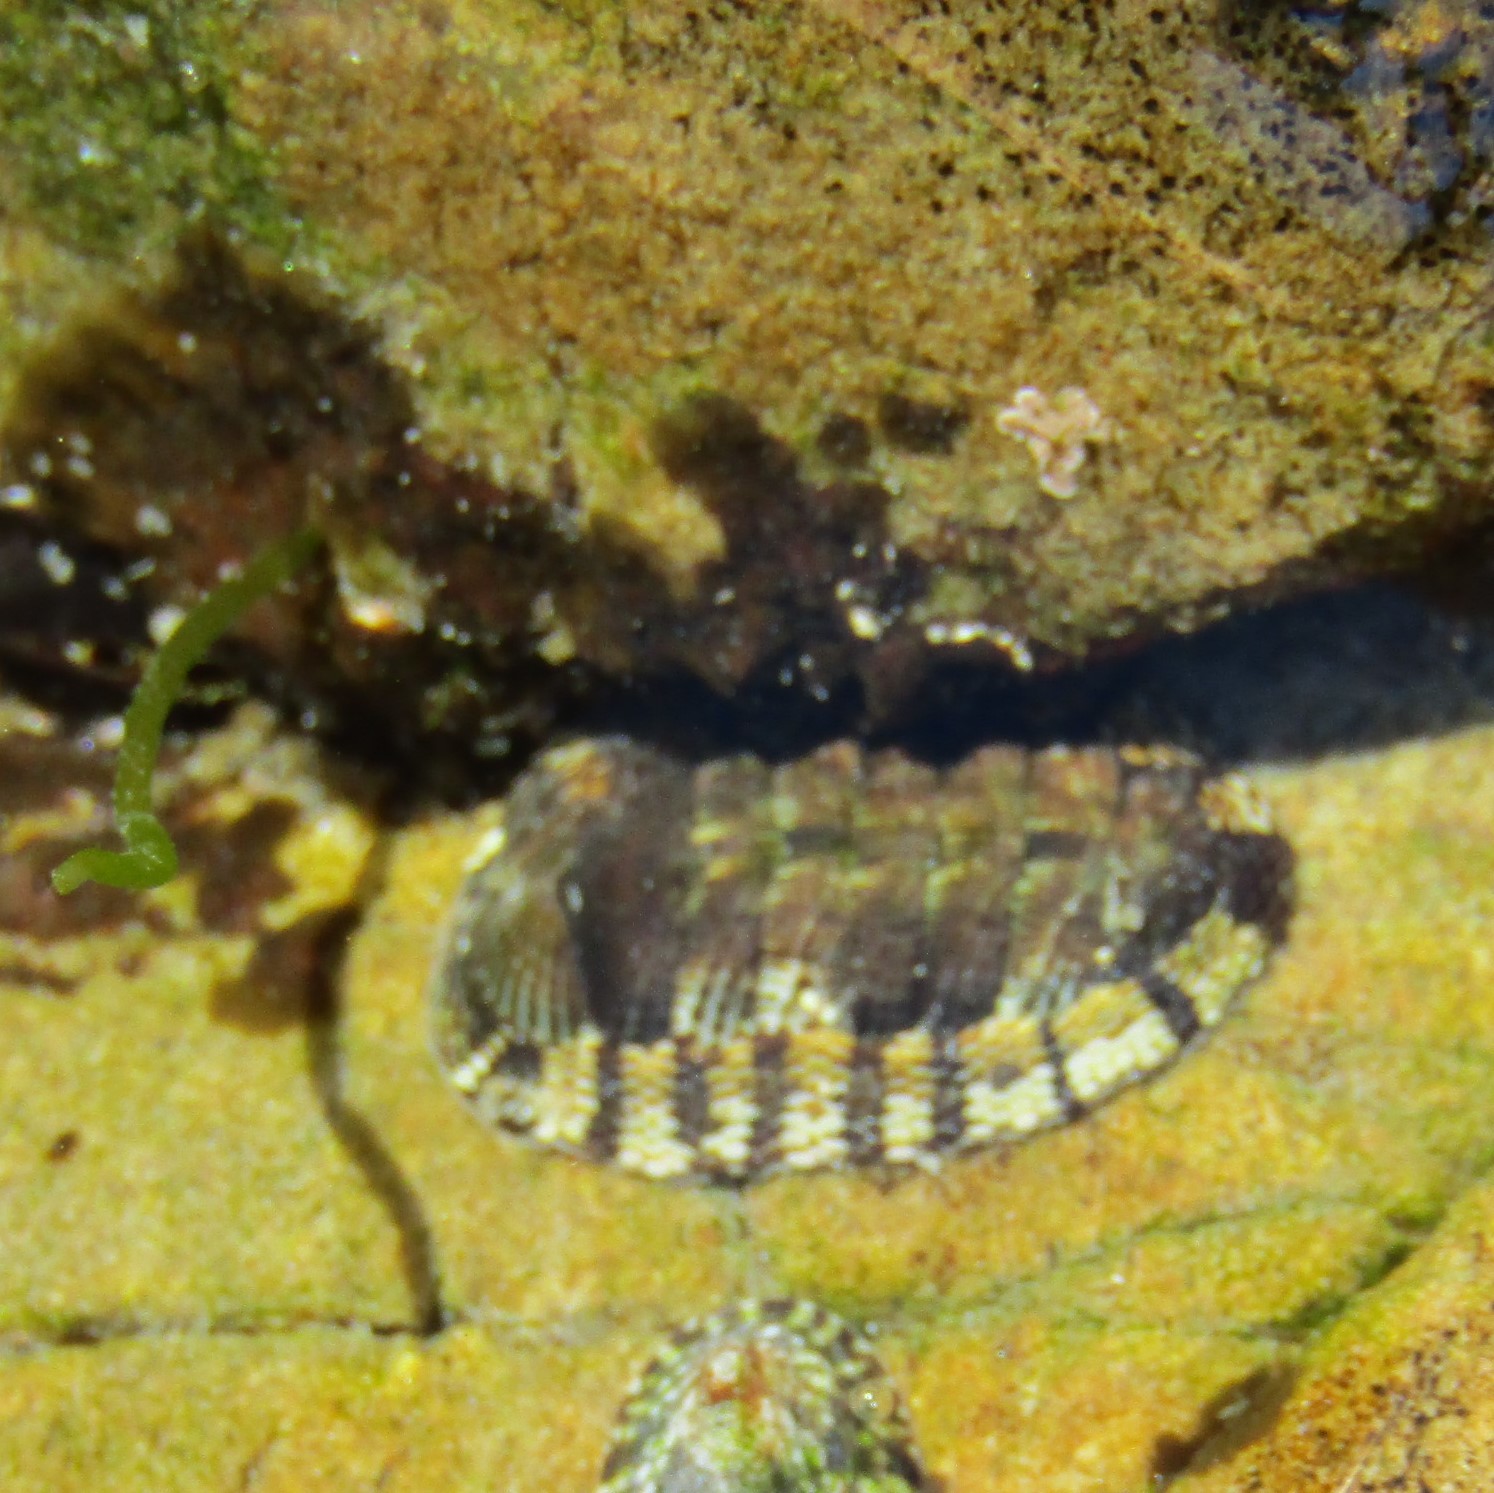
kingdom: Animalia
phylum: Mollusca
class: Polyplacophora
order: Chitonida
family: Chitonidae
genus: Sypharochiton
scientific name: Sypharochiton pelliserpentis
